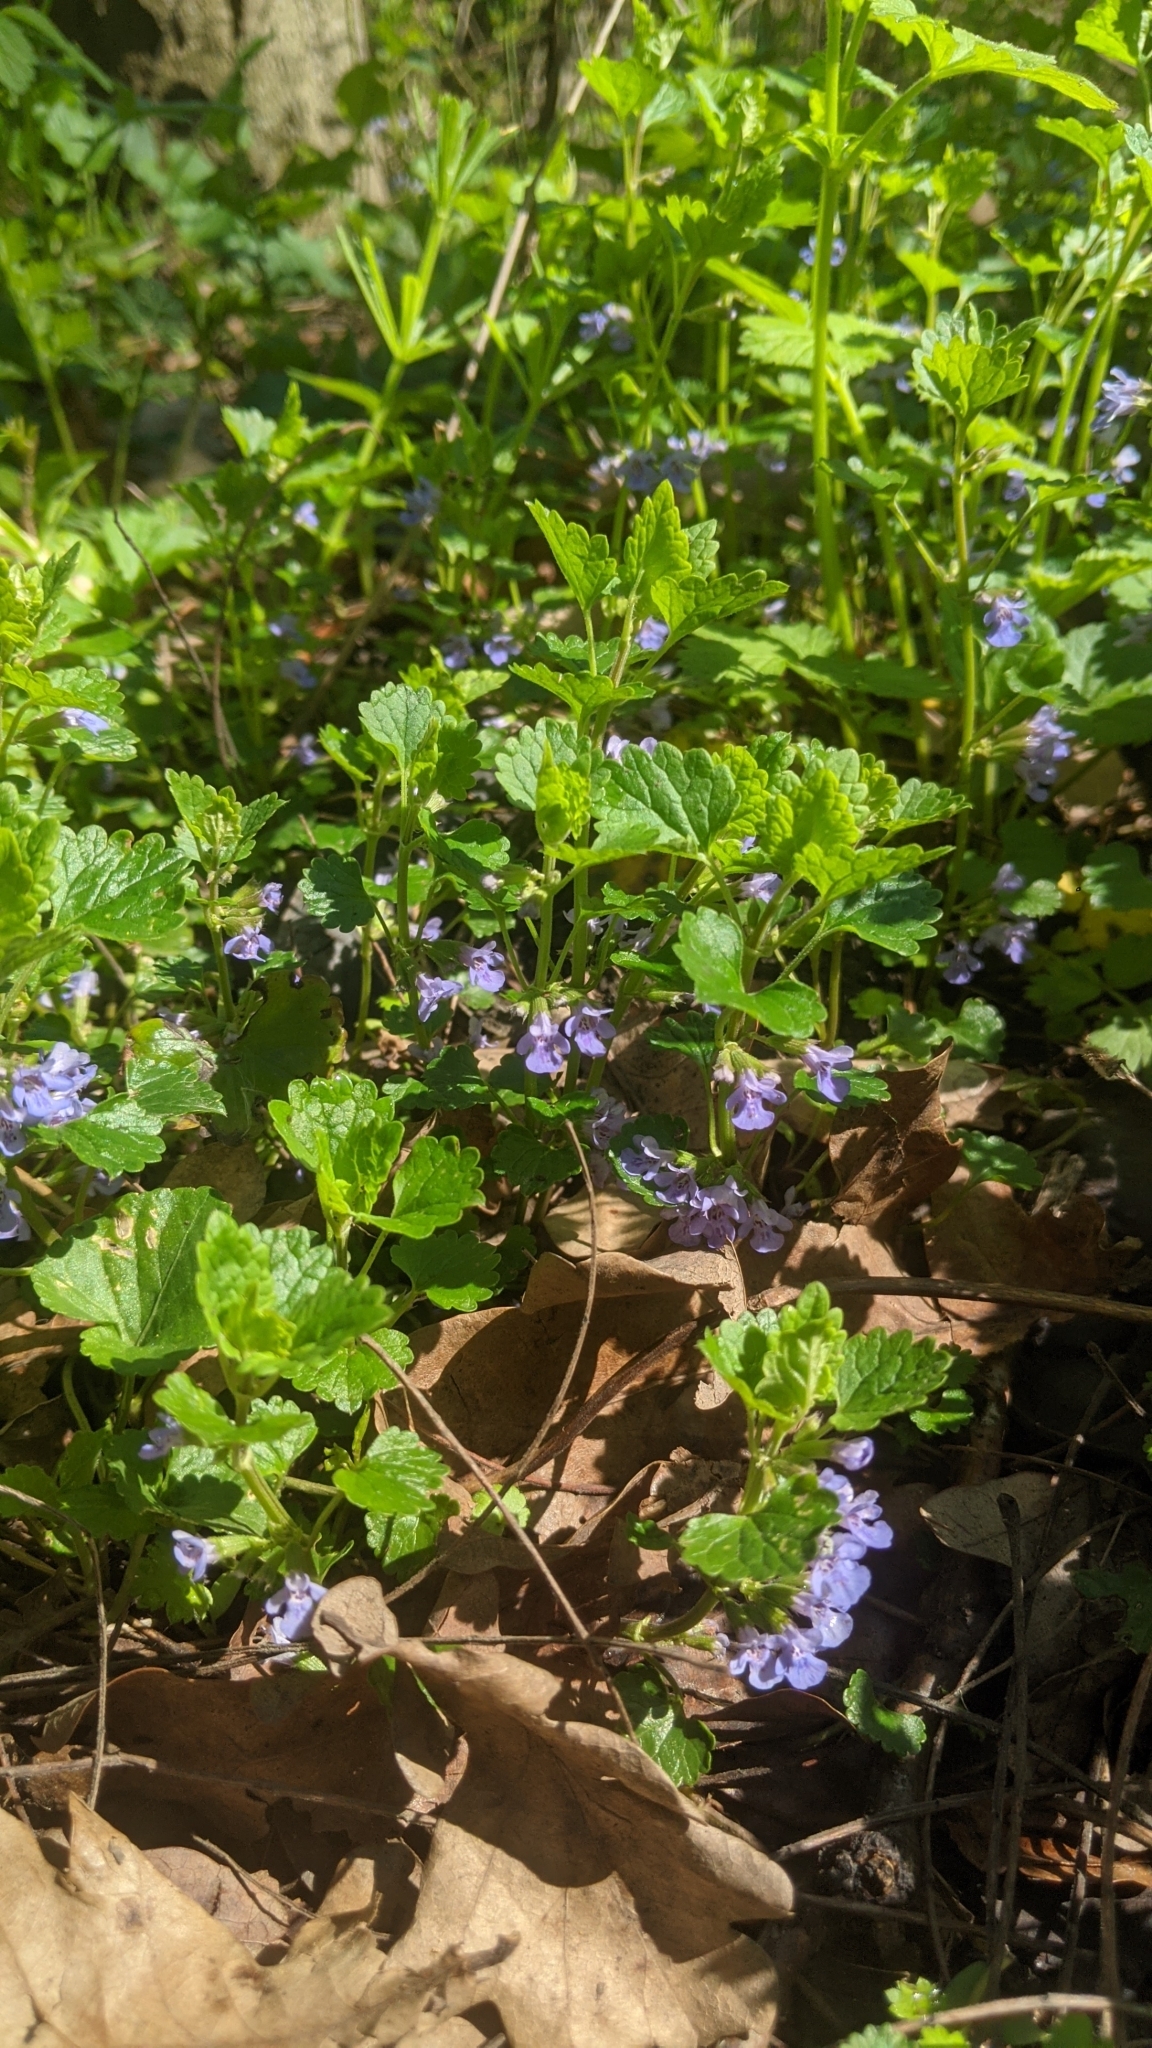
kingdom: Plantae
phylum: Tracheophyta
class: Magnoliopsida
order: Lamiales
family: Lamiaceae
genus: Glechoma
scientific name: Glechoma hederacea
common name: Ground ivy
